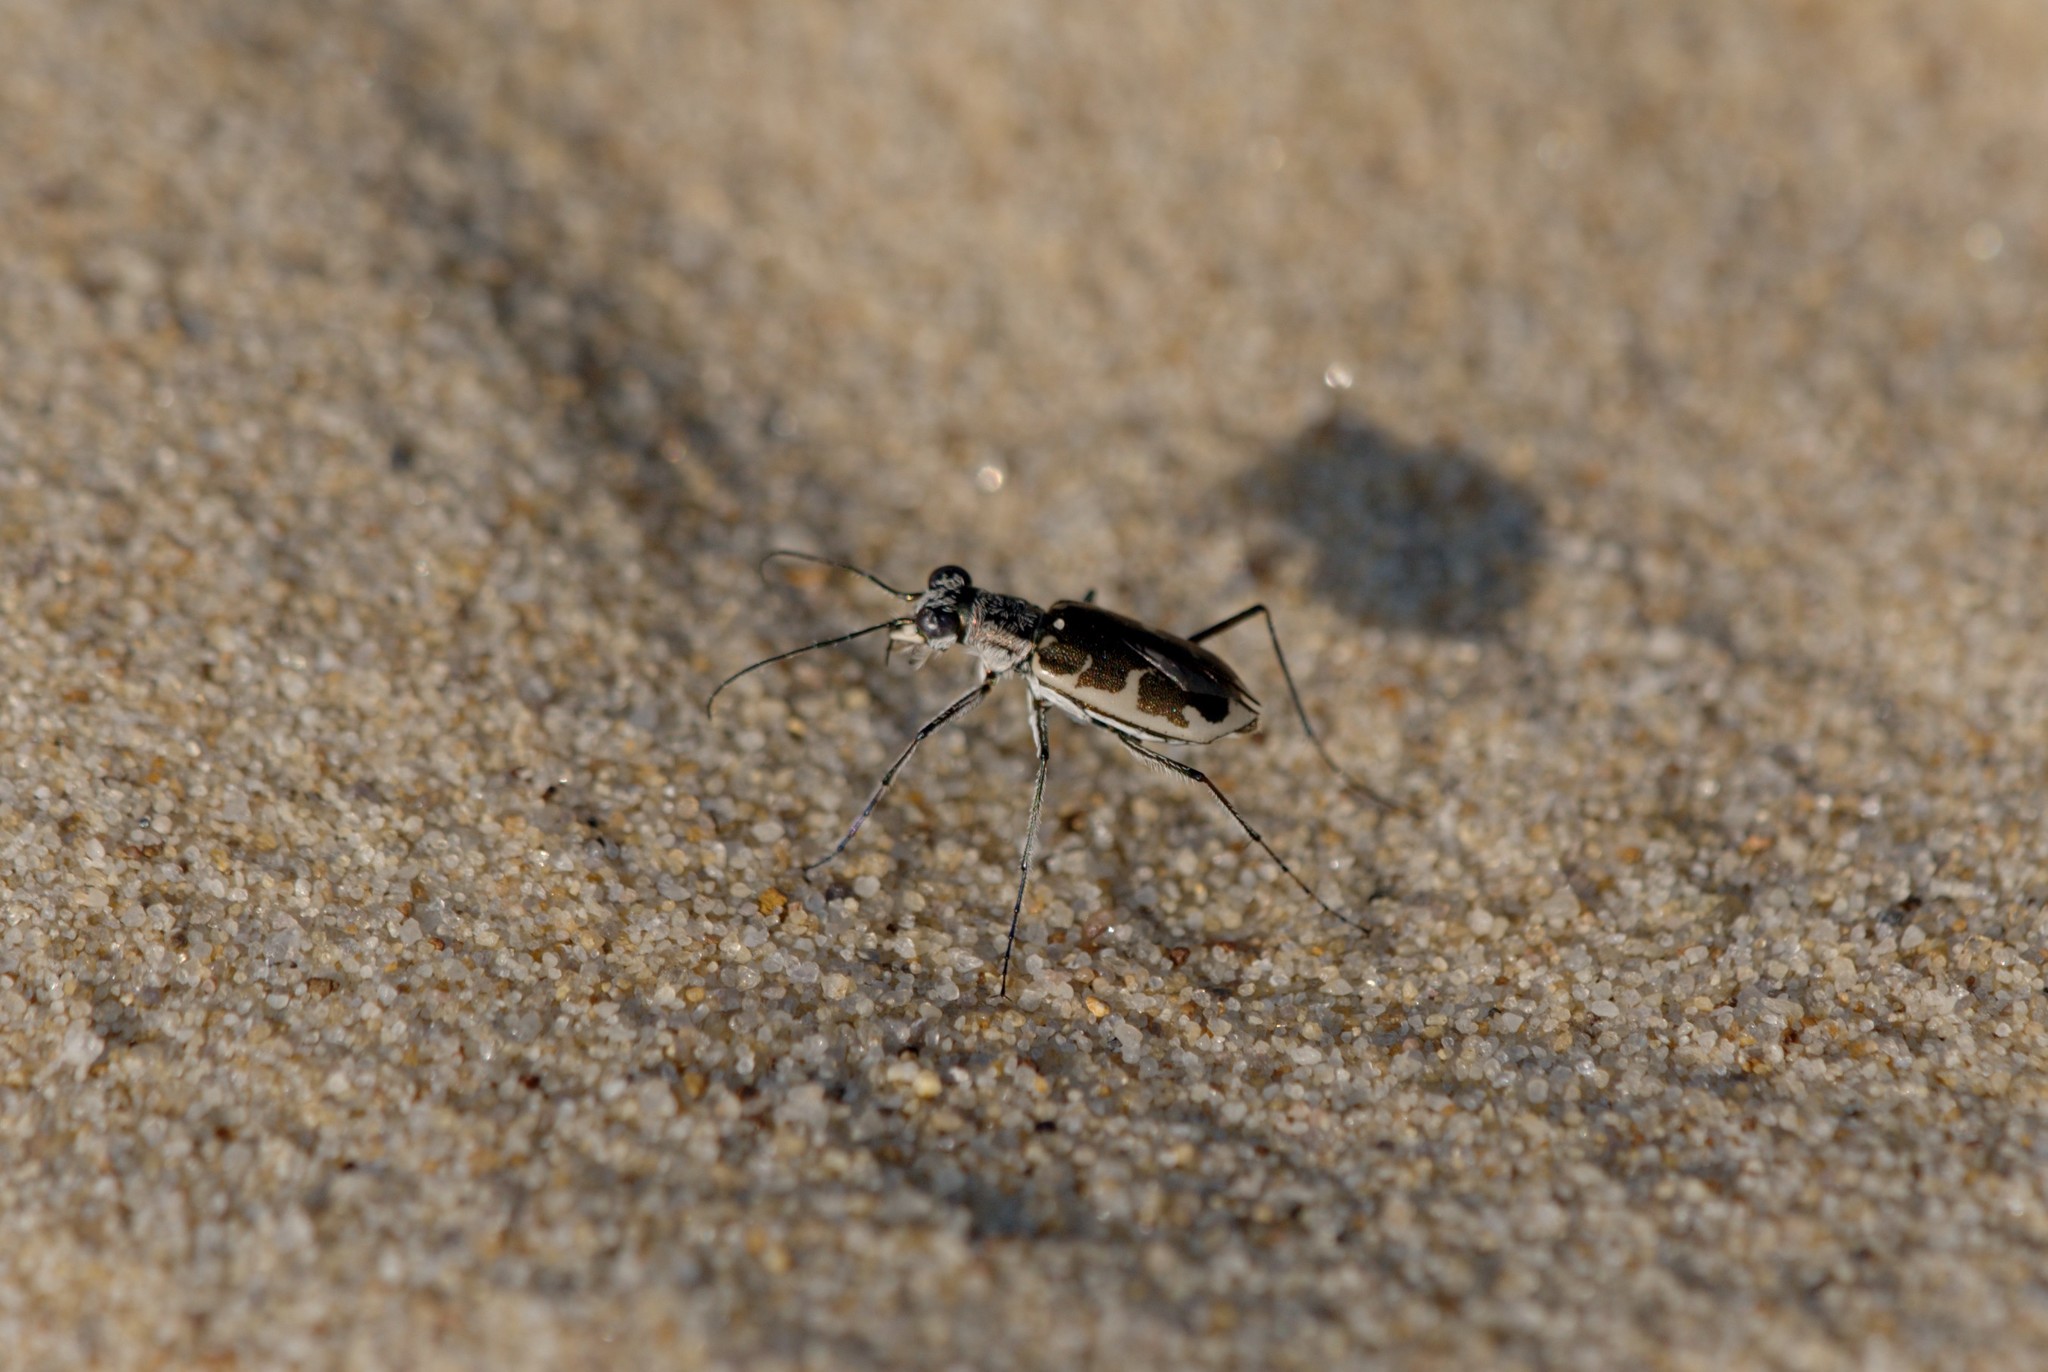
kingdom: Animalia
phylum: Arthropoda
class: Insecta
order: Coleoptera
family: Carabidae
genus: Ellipsoptera
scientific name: Ellipsoptera puritana
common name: Puritan tiger beetle
